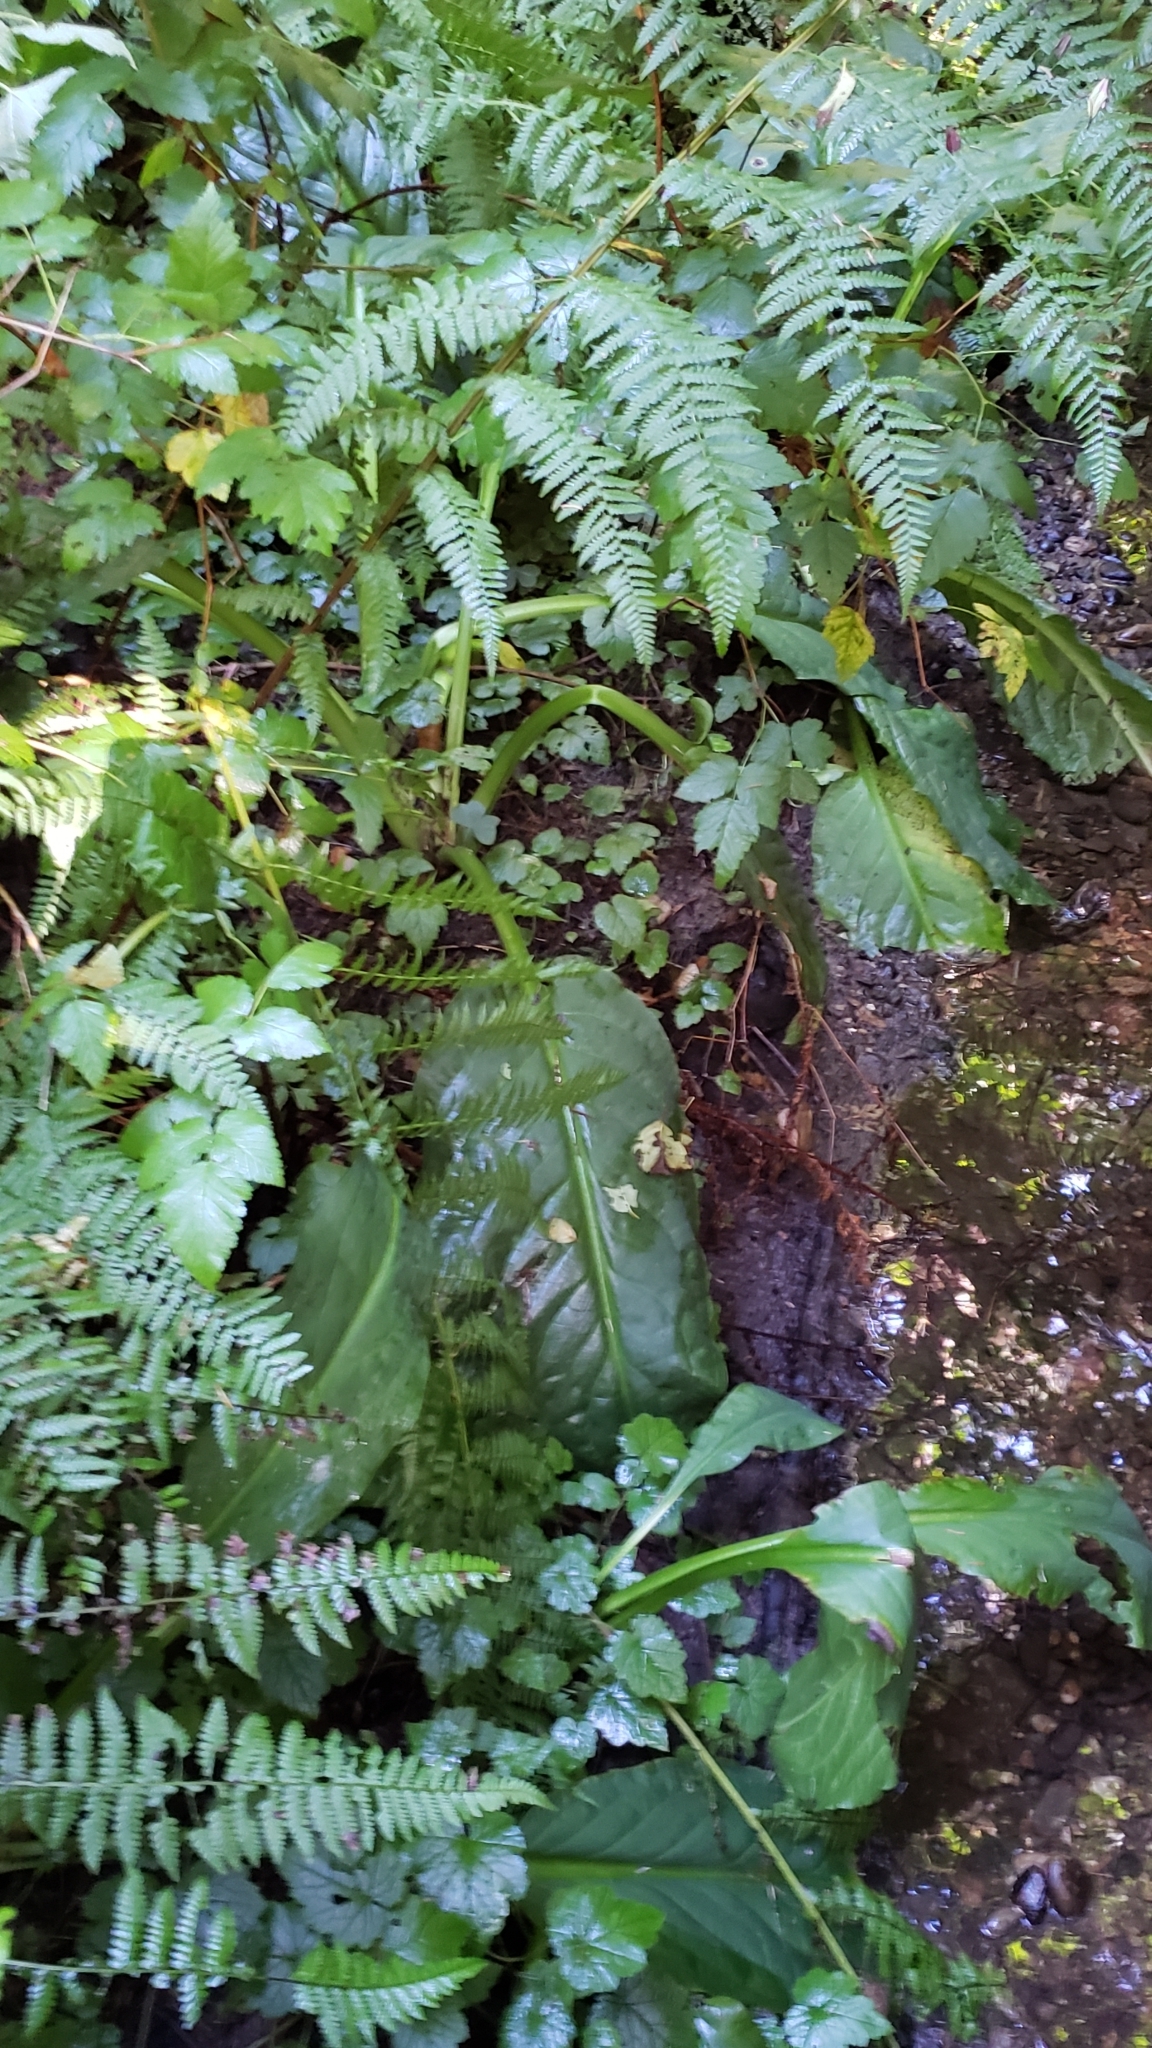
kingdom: Plantae
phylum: Tracheophyta
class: Liliopsida
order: Alismatales
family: Araceae
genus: Lysichiton
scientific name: Lysichiton americanus
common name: American skunk cabbage
